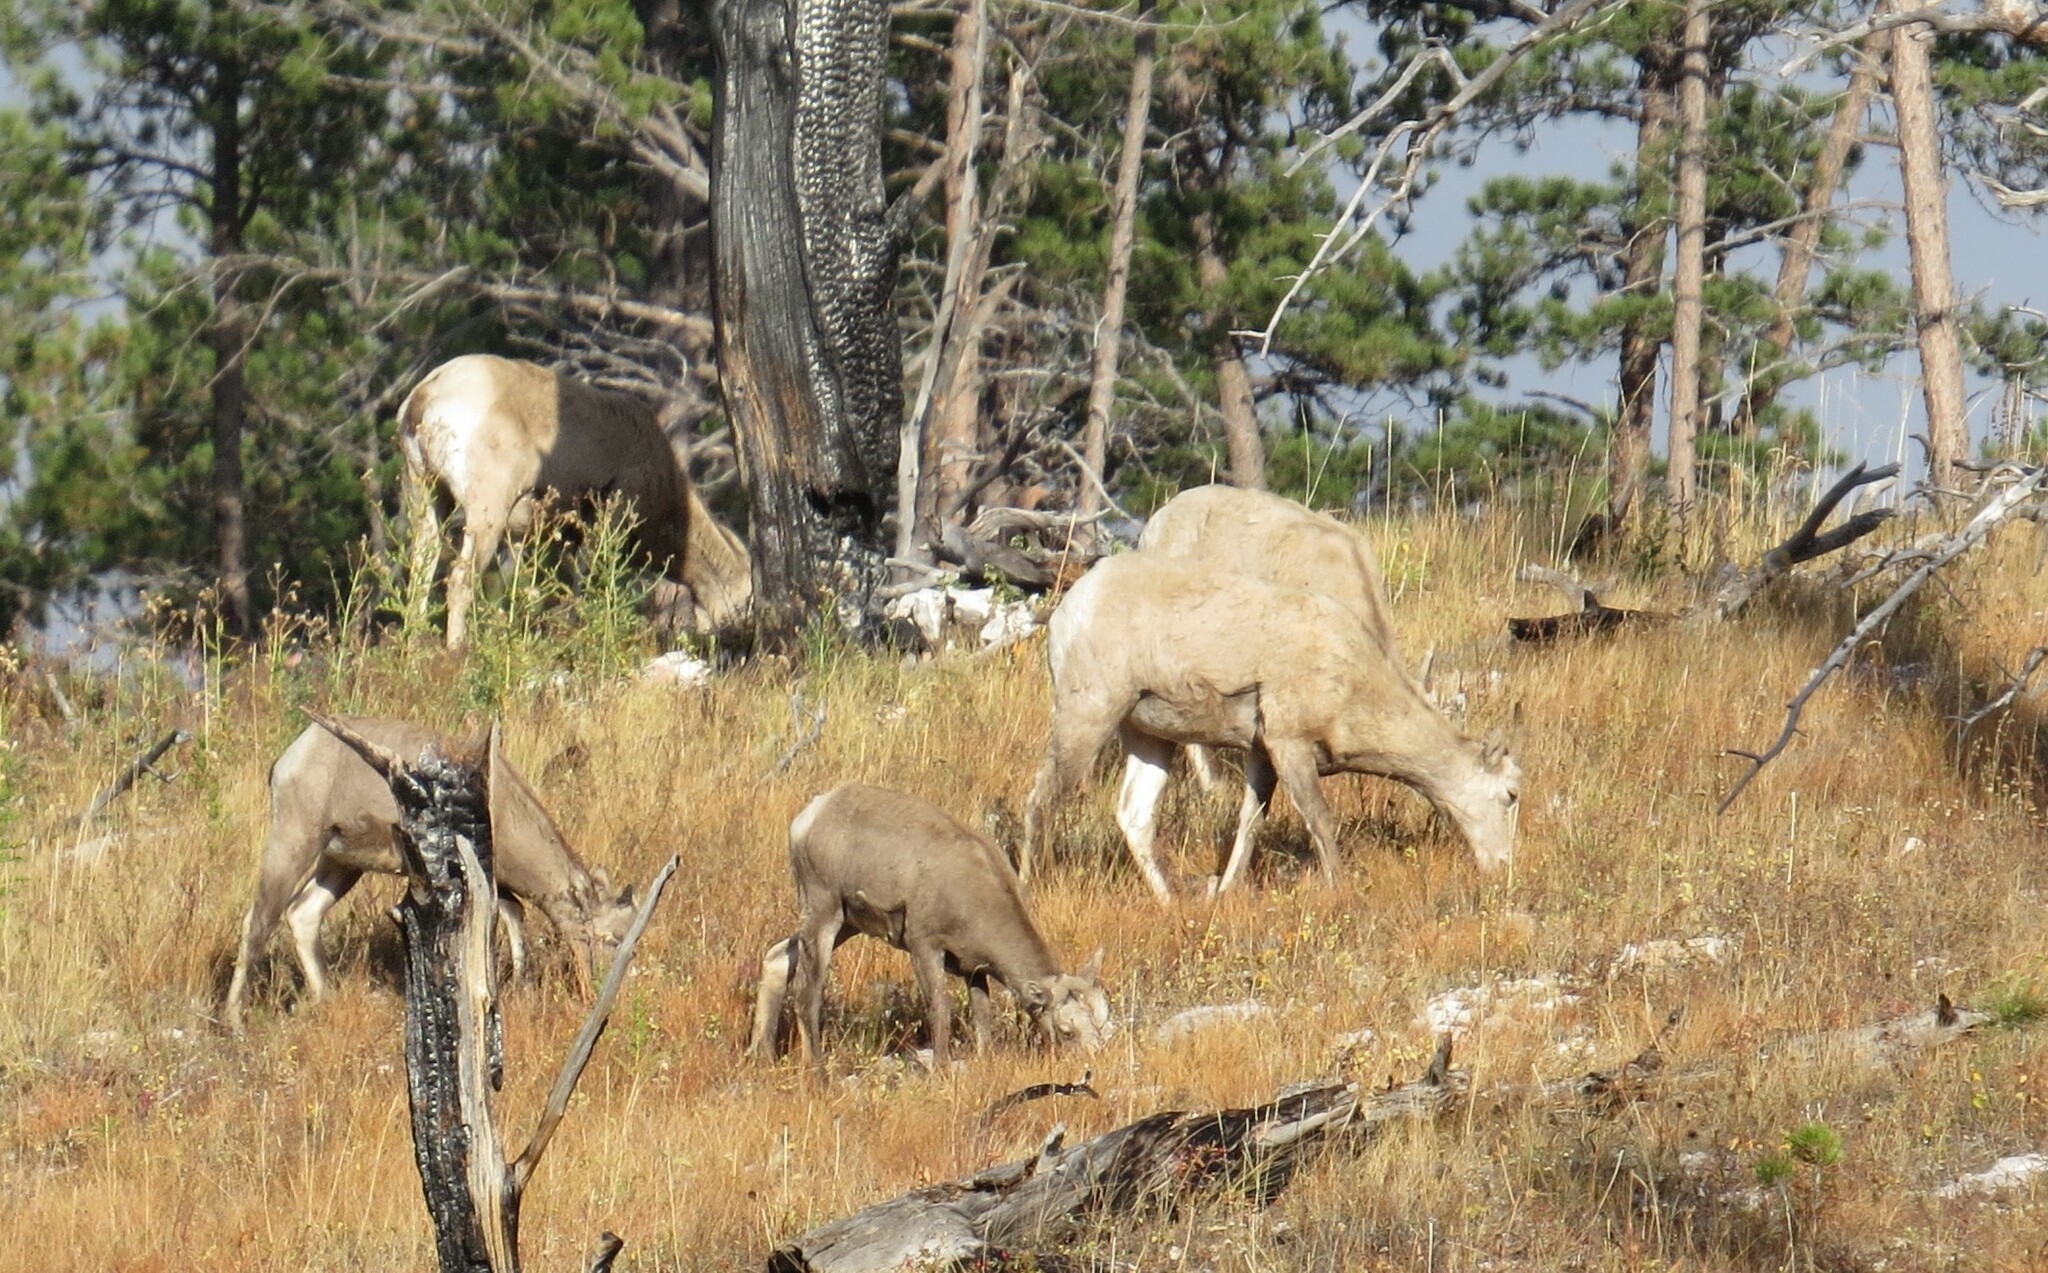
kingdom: Animalia
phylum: Chordata
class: Mammalia
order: Artiodactyla
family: Bovidae
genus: Ovis
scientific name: Ovis canadensis
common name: Bighorn sheep
